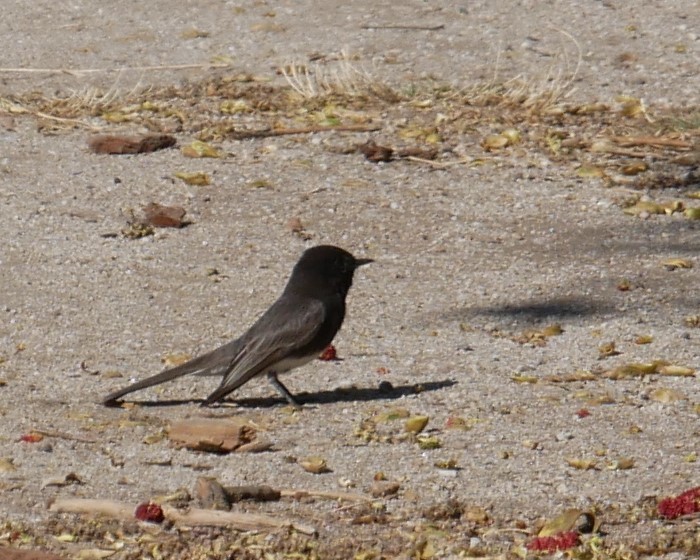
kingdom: Animalia
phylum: Chordata
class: Aves
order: Passeriformes
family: Tyrannidae
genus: Sayornis
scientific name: Sayornis nigricans
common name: Black phoebe
